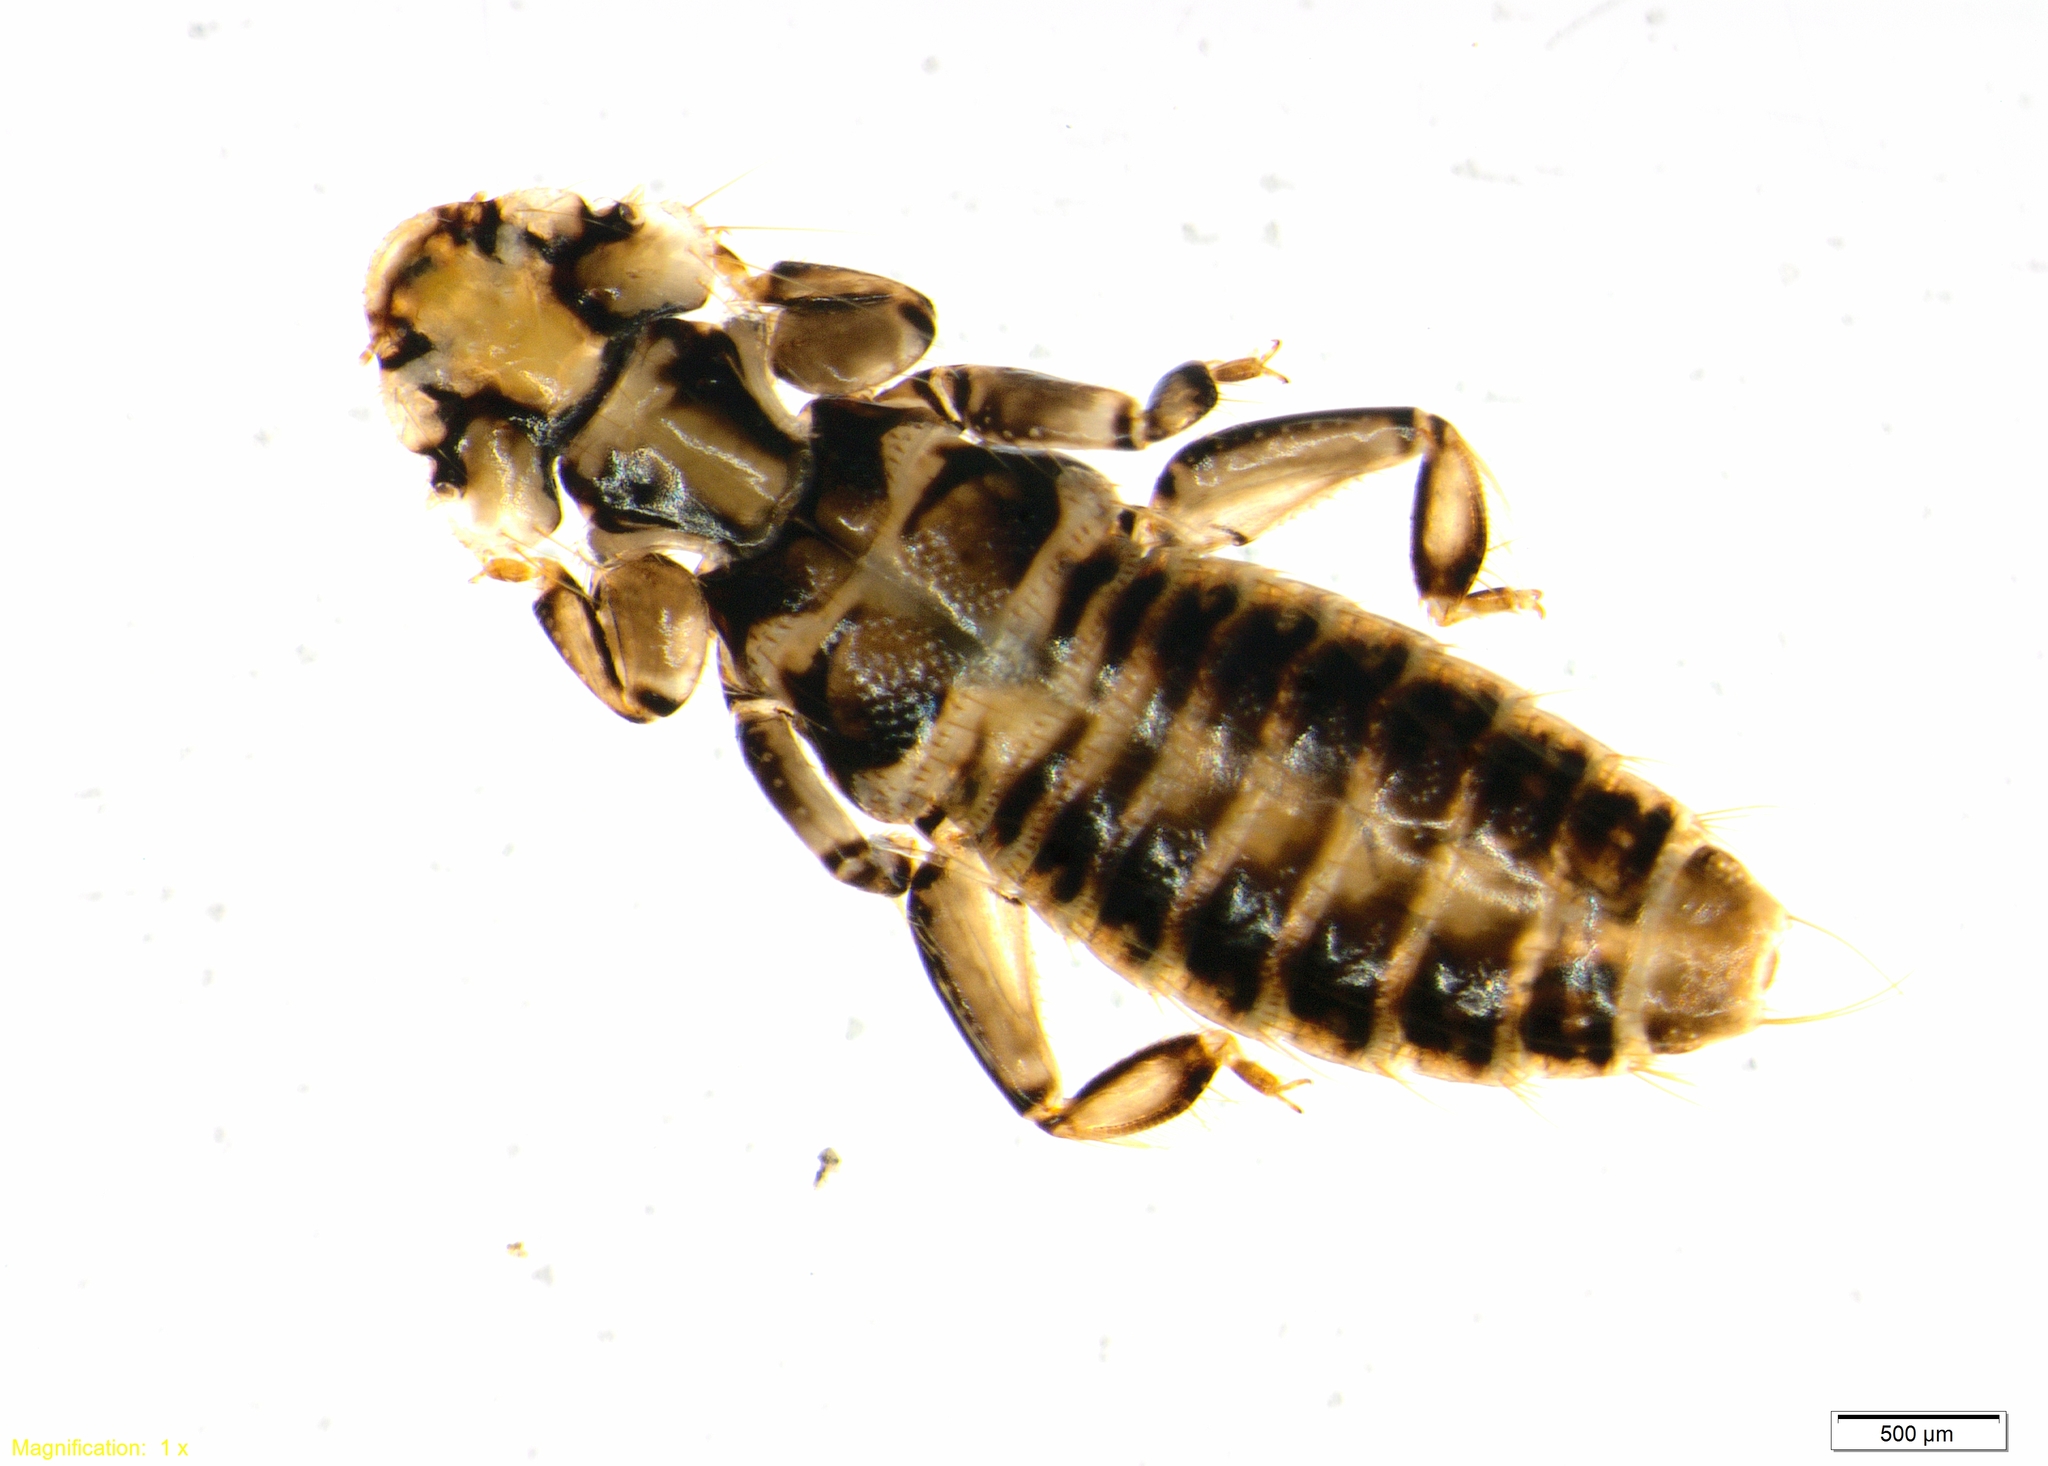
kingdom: Animalia
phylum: Arthropoda
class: Insecta
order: Psocodea
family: Trinotonidae
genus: Trinoton
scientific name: Trinoton querquedulae
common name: Louse
